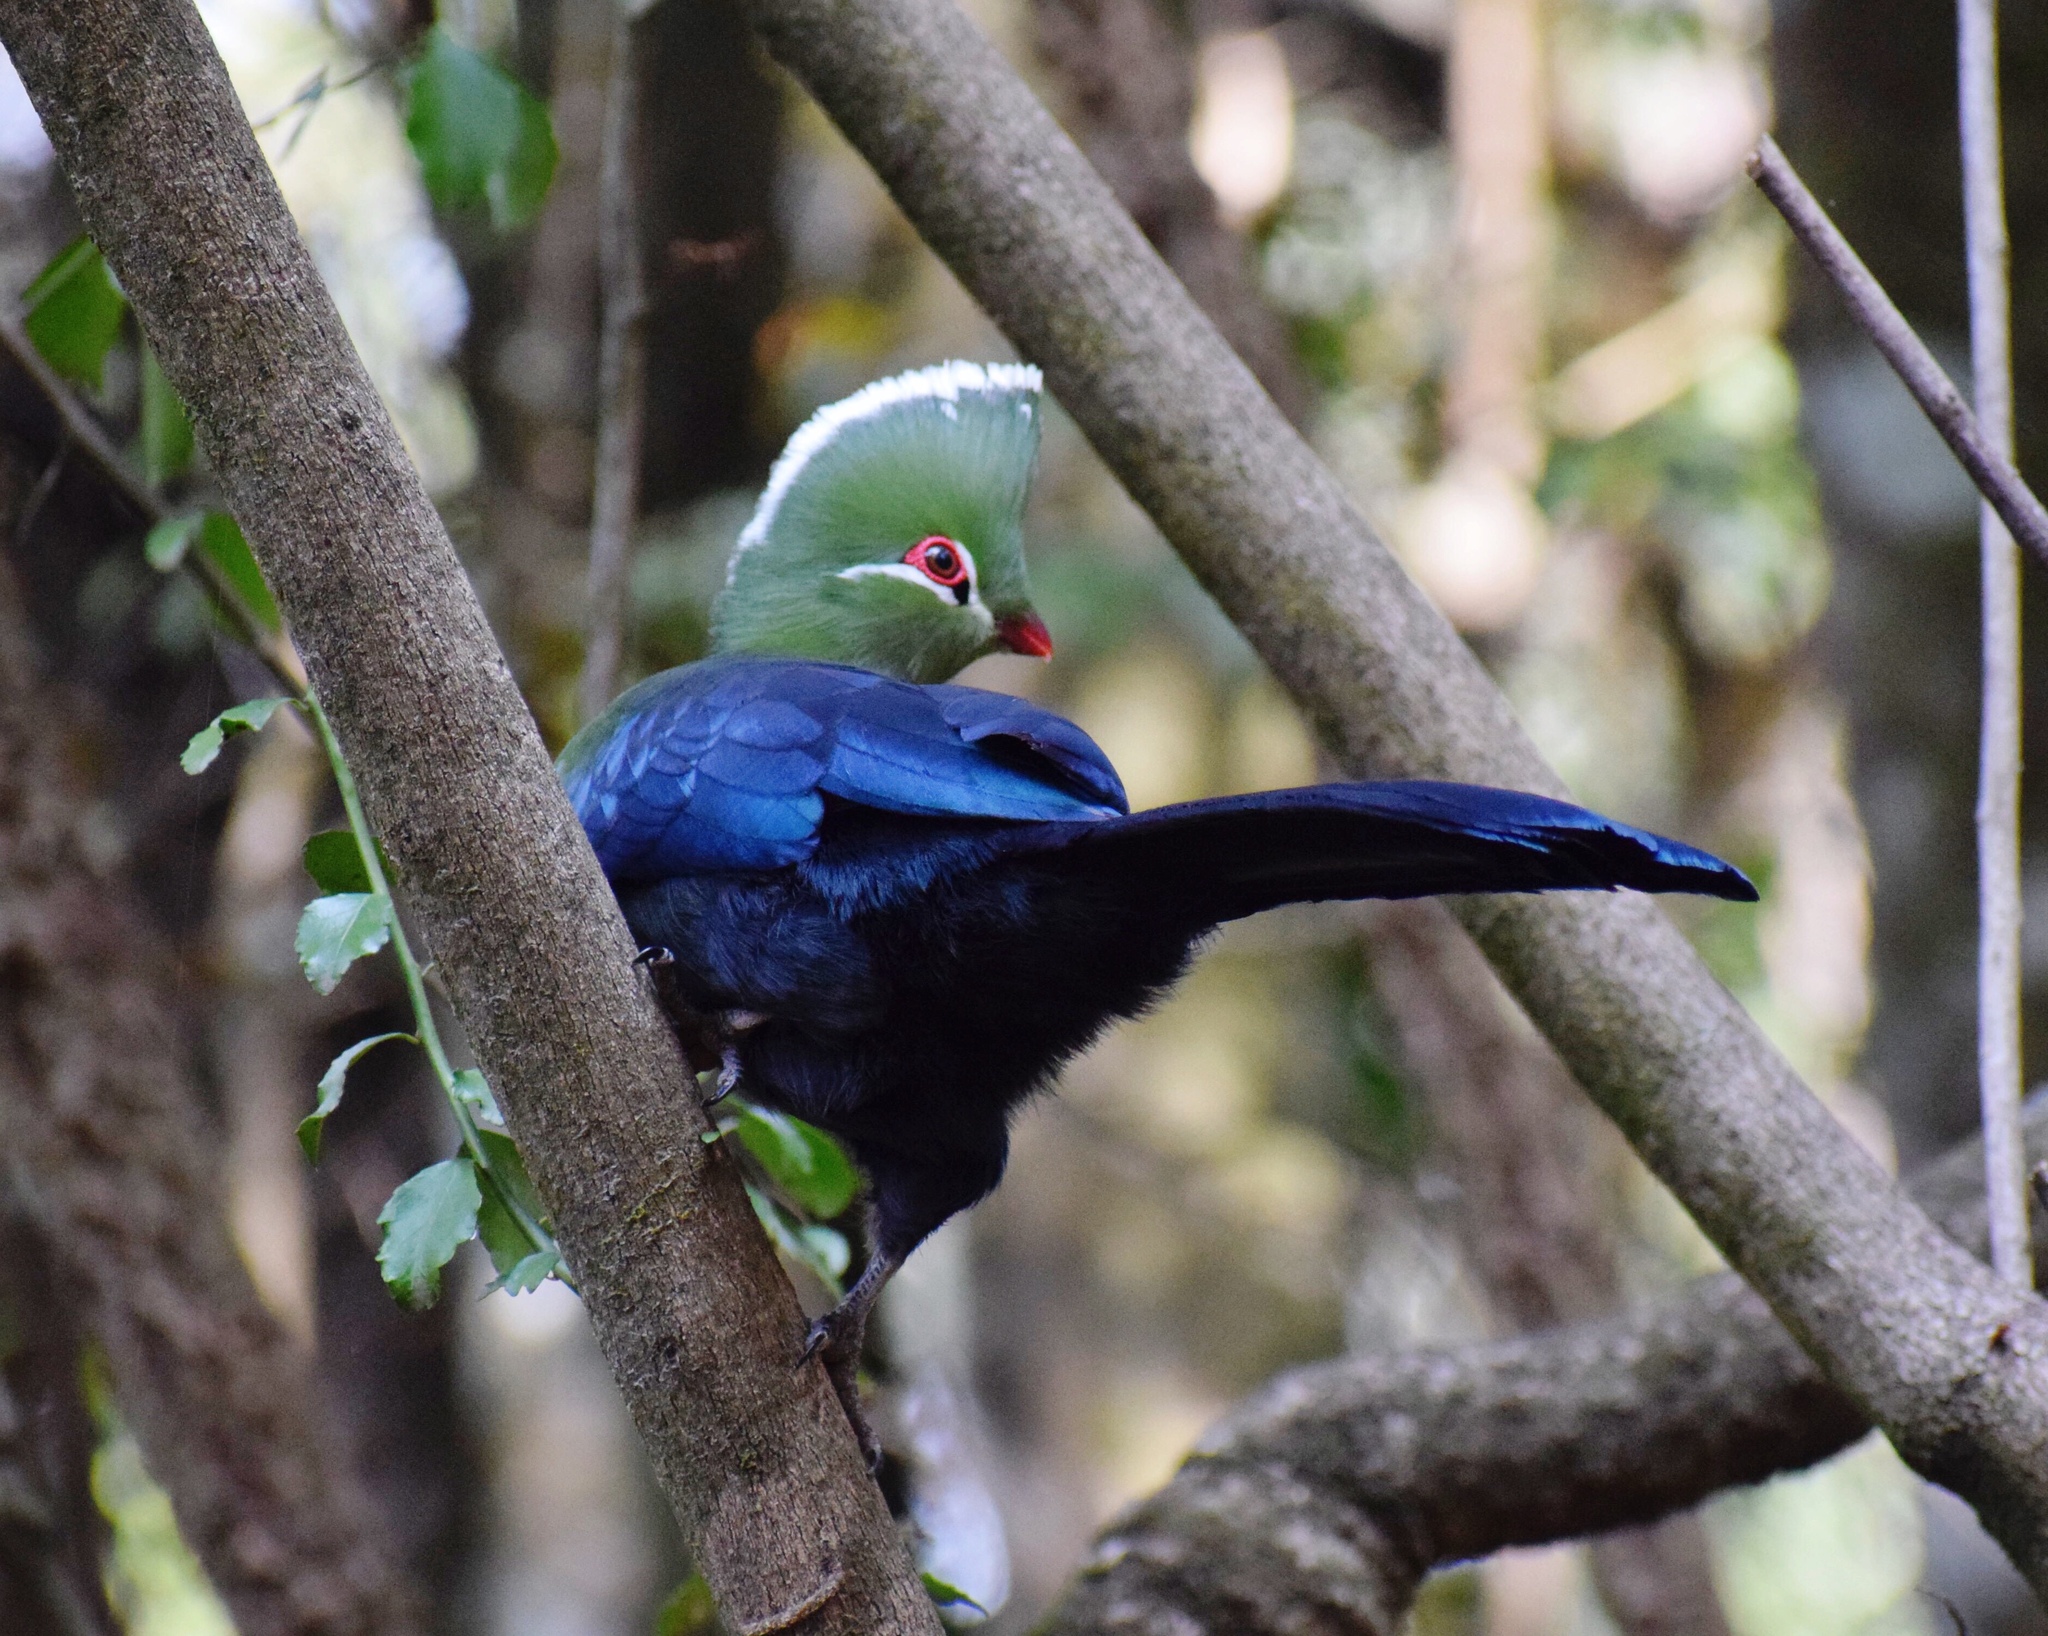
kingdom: Animalia
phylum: Chordata
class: Aves
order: Musophagiformes
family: Musophagidae
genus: Tauraco
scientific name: Tauraco corythaix
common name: Knysna turaco
